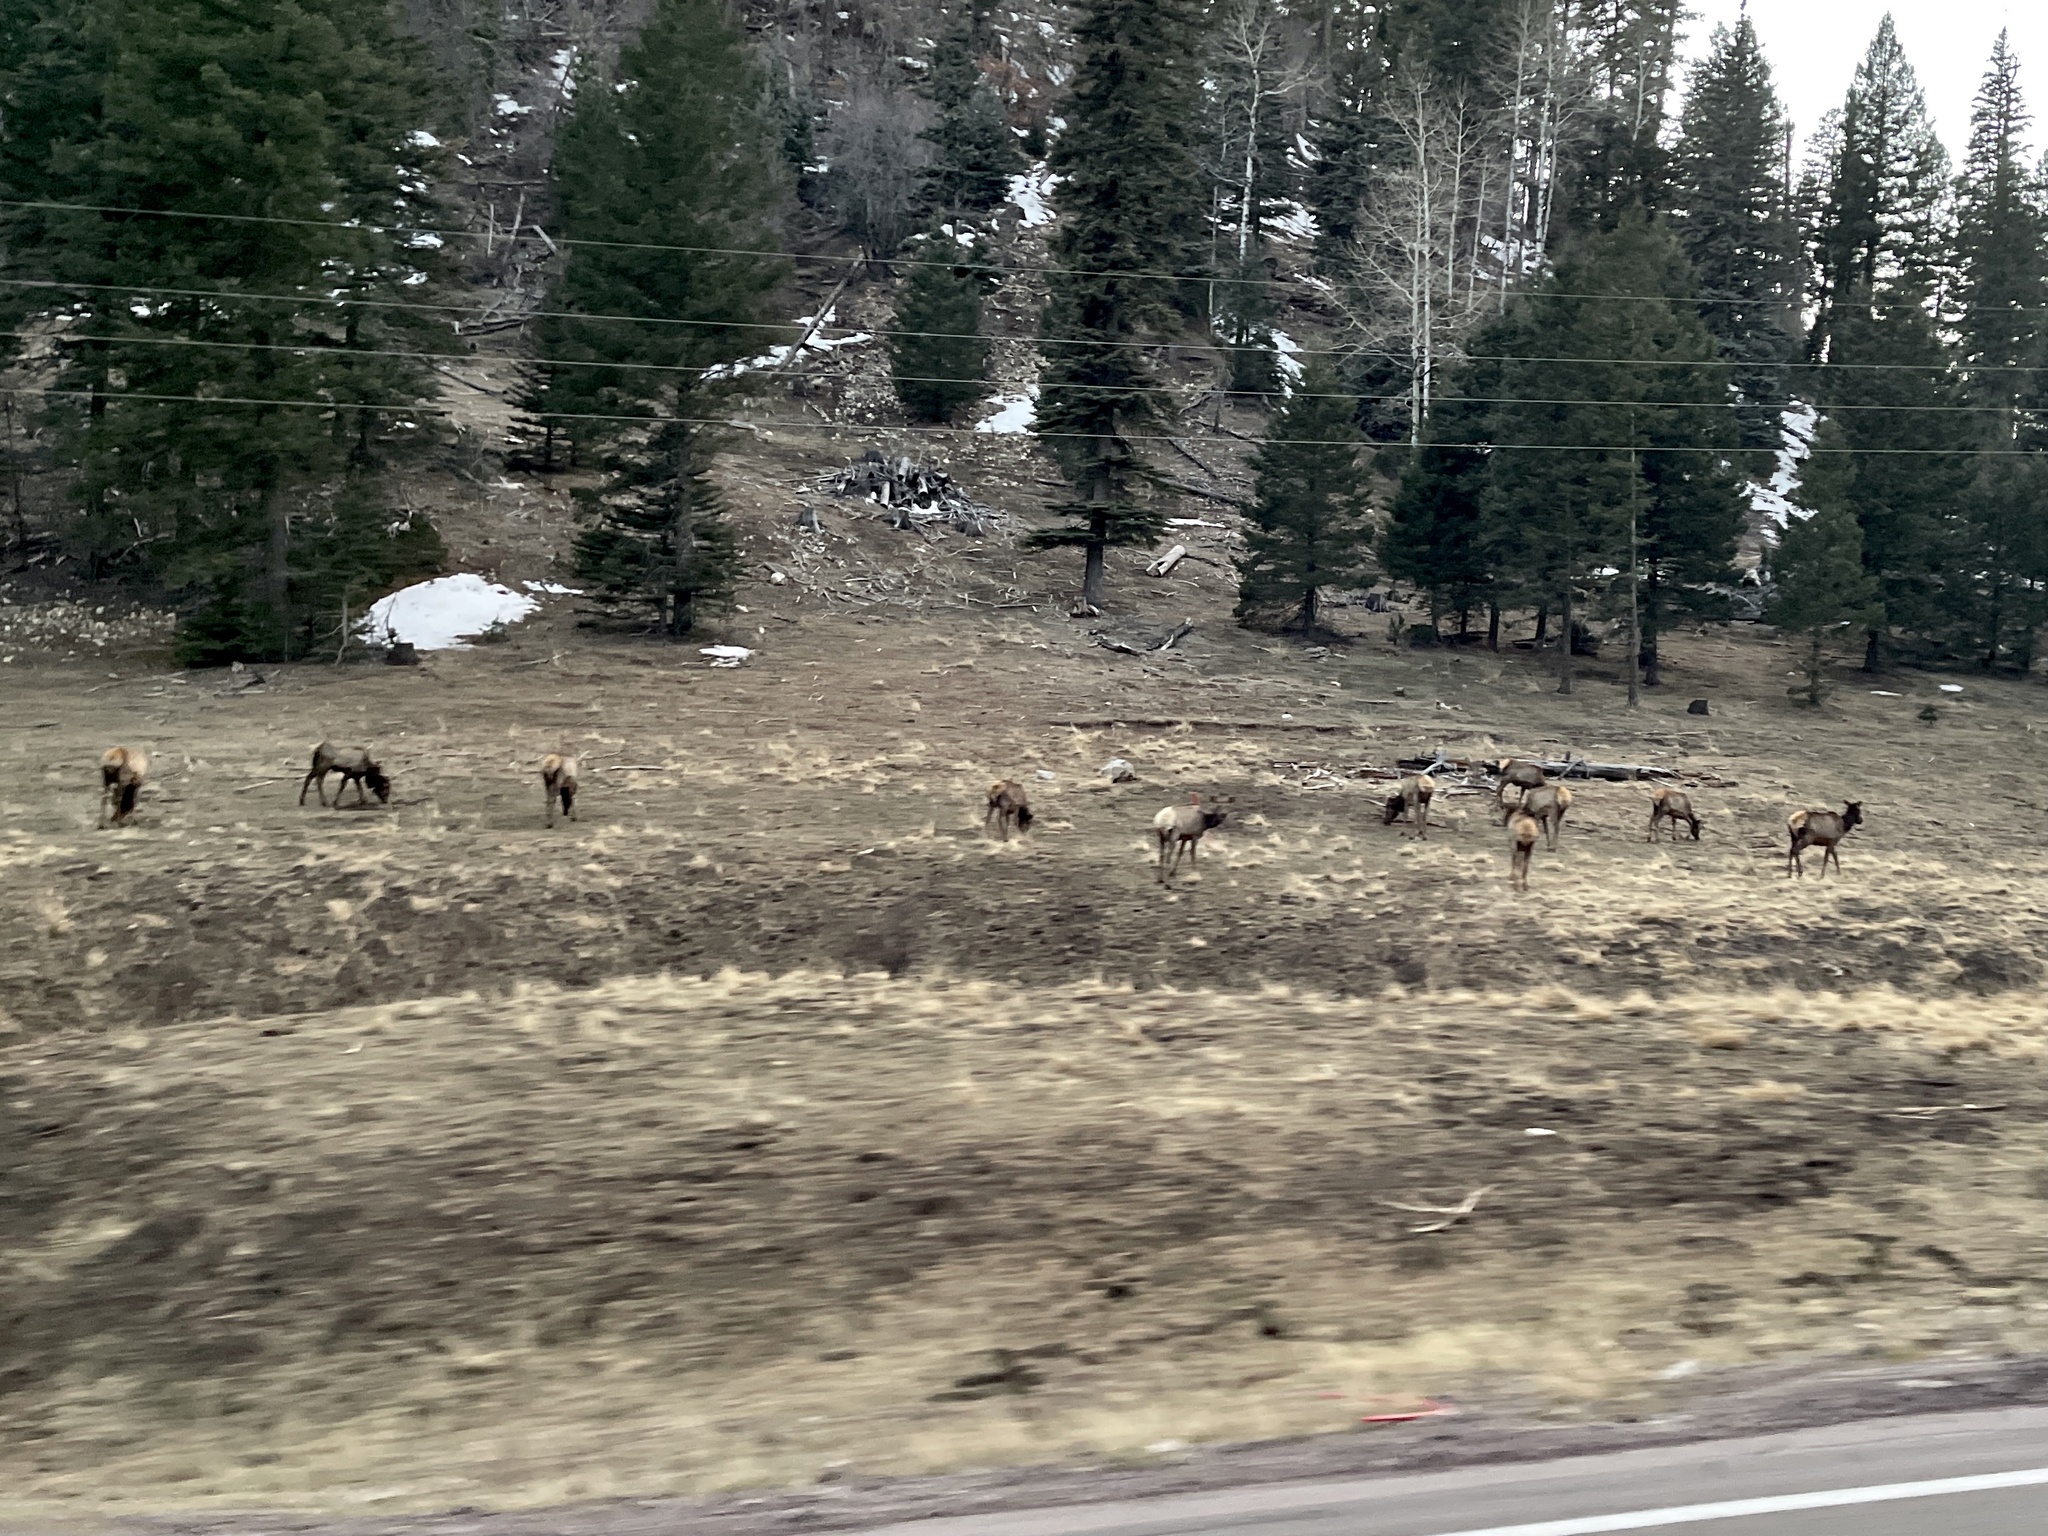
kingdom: Animalia
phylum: Chordata
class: Mammalia
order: Artiodactyla
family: Cervidae
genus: Cervus
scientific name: Cervus elaphus
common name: Red deer
